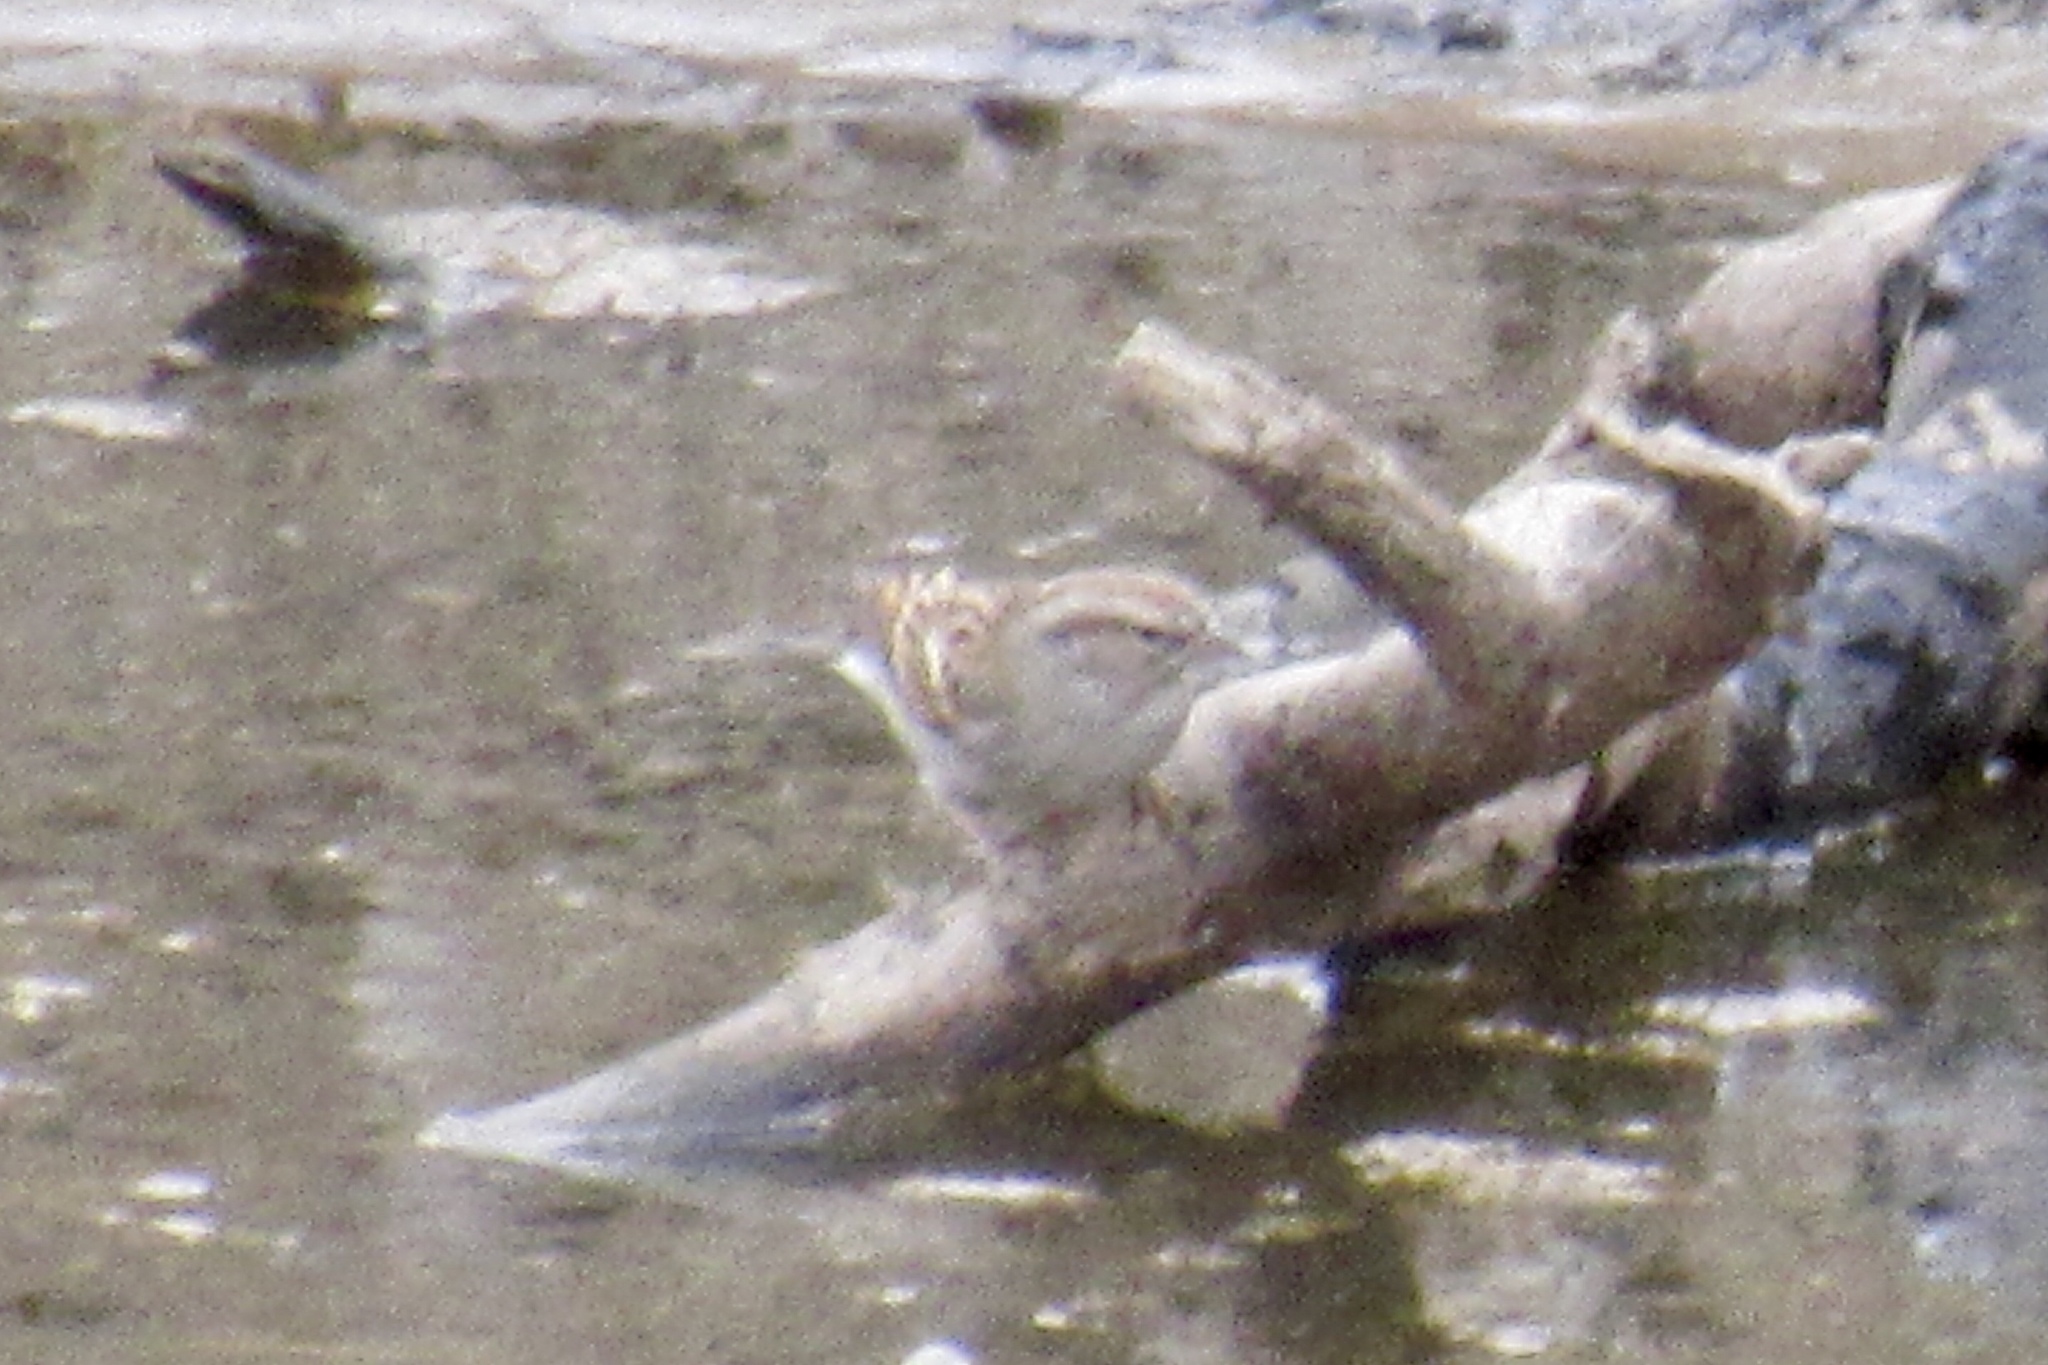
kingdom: Animalia
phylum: Chordata
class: Aves
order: Passeriformes
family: Passerellidae
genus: Spizella
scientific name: Spizella passerina
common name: Chipping sparrow
